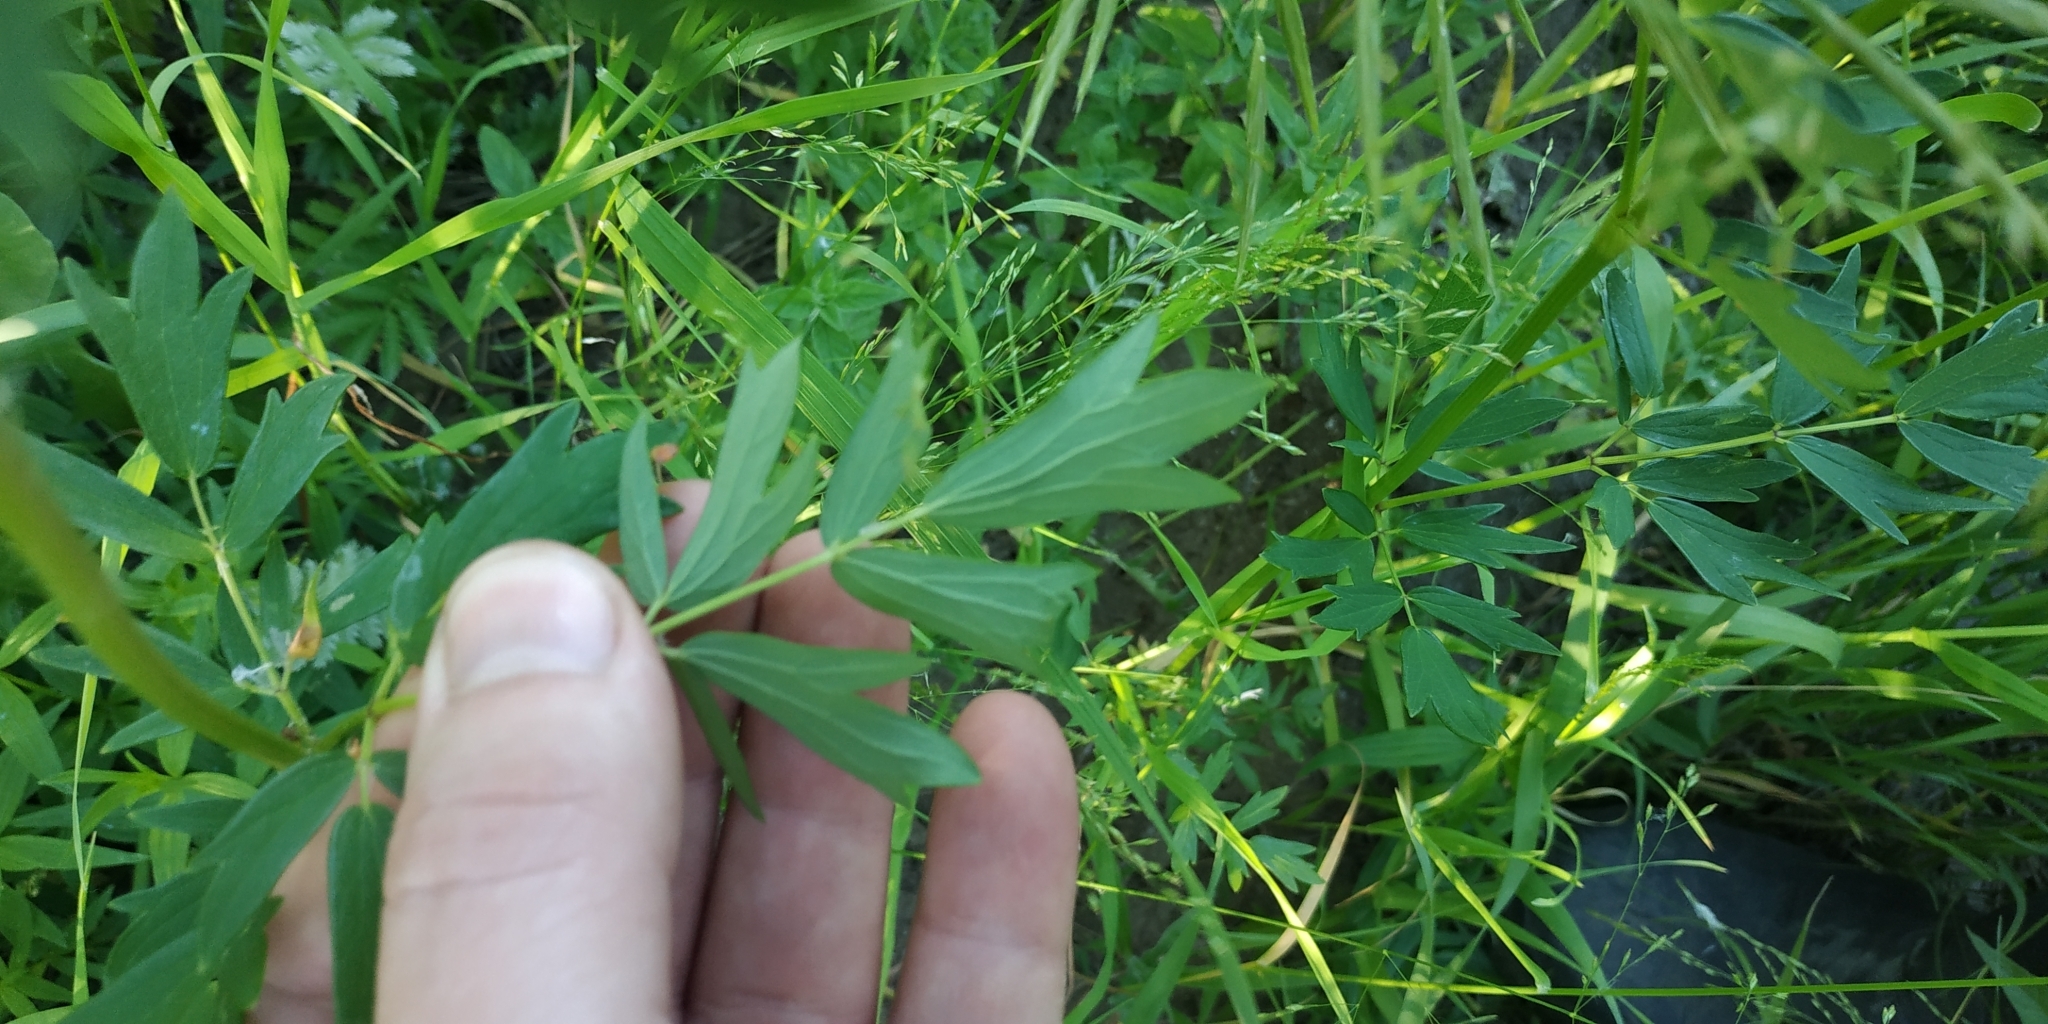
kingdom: Plantae
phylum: Tracheophyta
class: Magnoliopsida
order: Ranunculales
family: Ranunculaceae
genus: Thalictrum
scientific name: Thalictrum flavum
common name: Common meadow-rue
